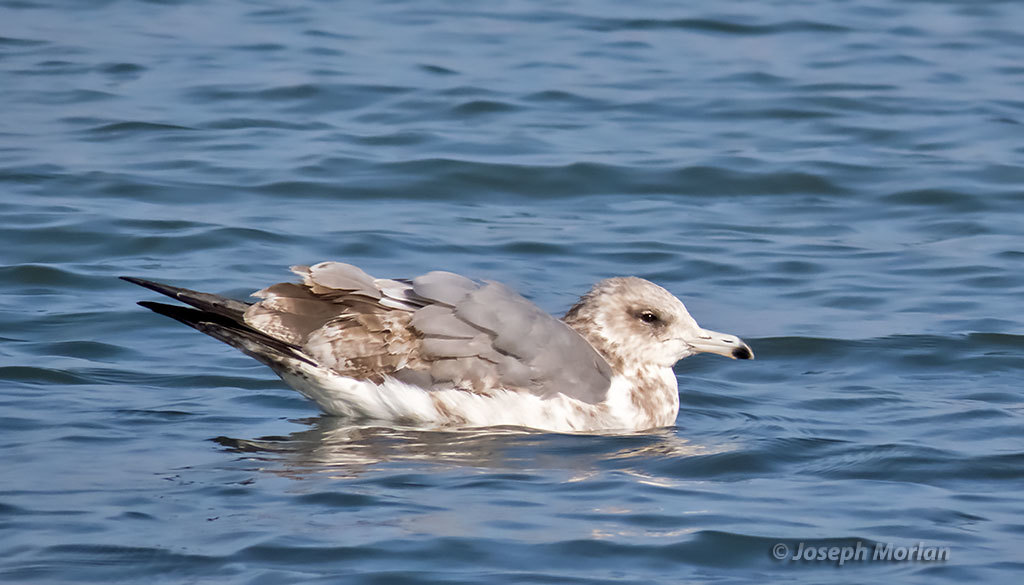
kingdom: Animalia
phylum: Chordata
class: Aves
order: Charadriiformes
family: Laridae
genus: Larus
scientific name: Larus californicus
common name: California gull
